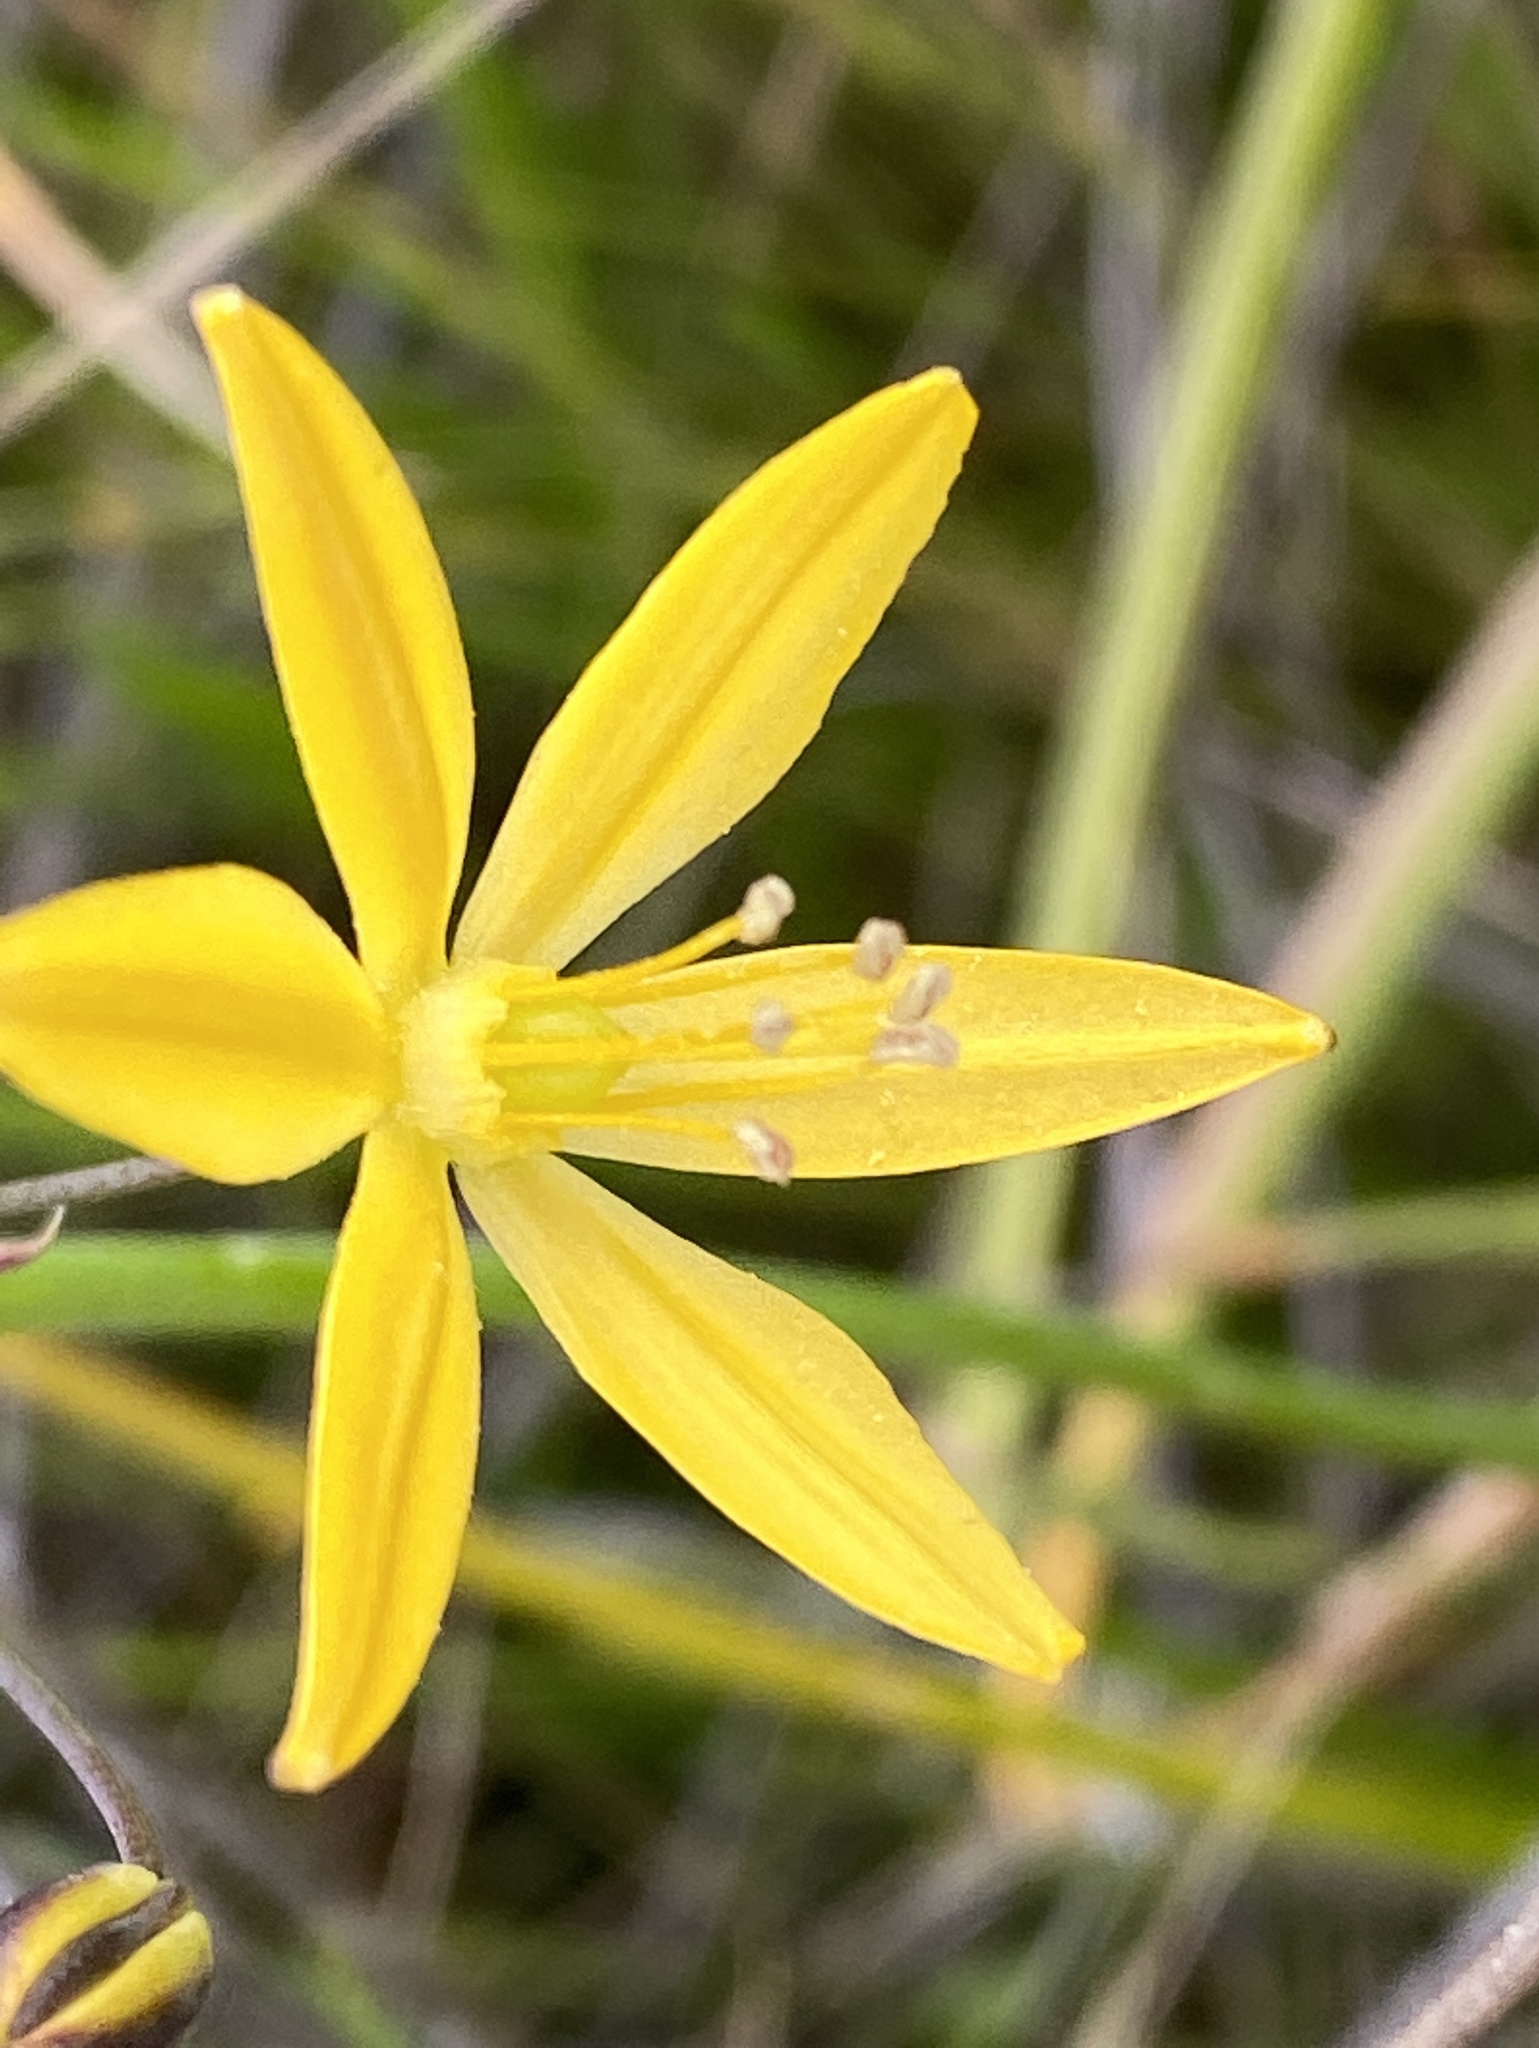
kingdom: Plantae
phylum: Tracheophyta
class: Liliopsida
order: Asparagales
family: Asparagaceae
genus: Bloomeria
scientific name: Bloomeria crocea
